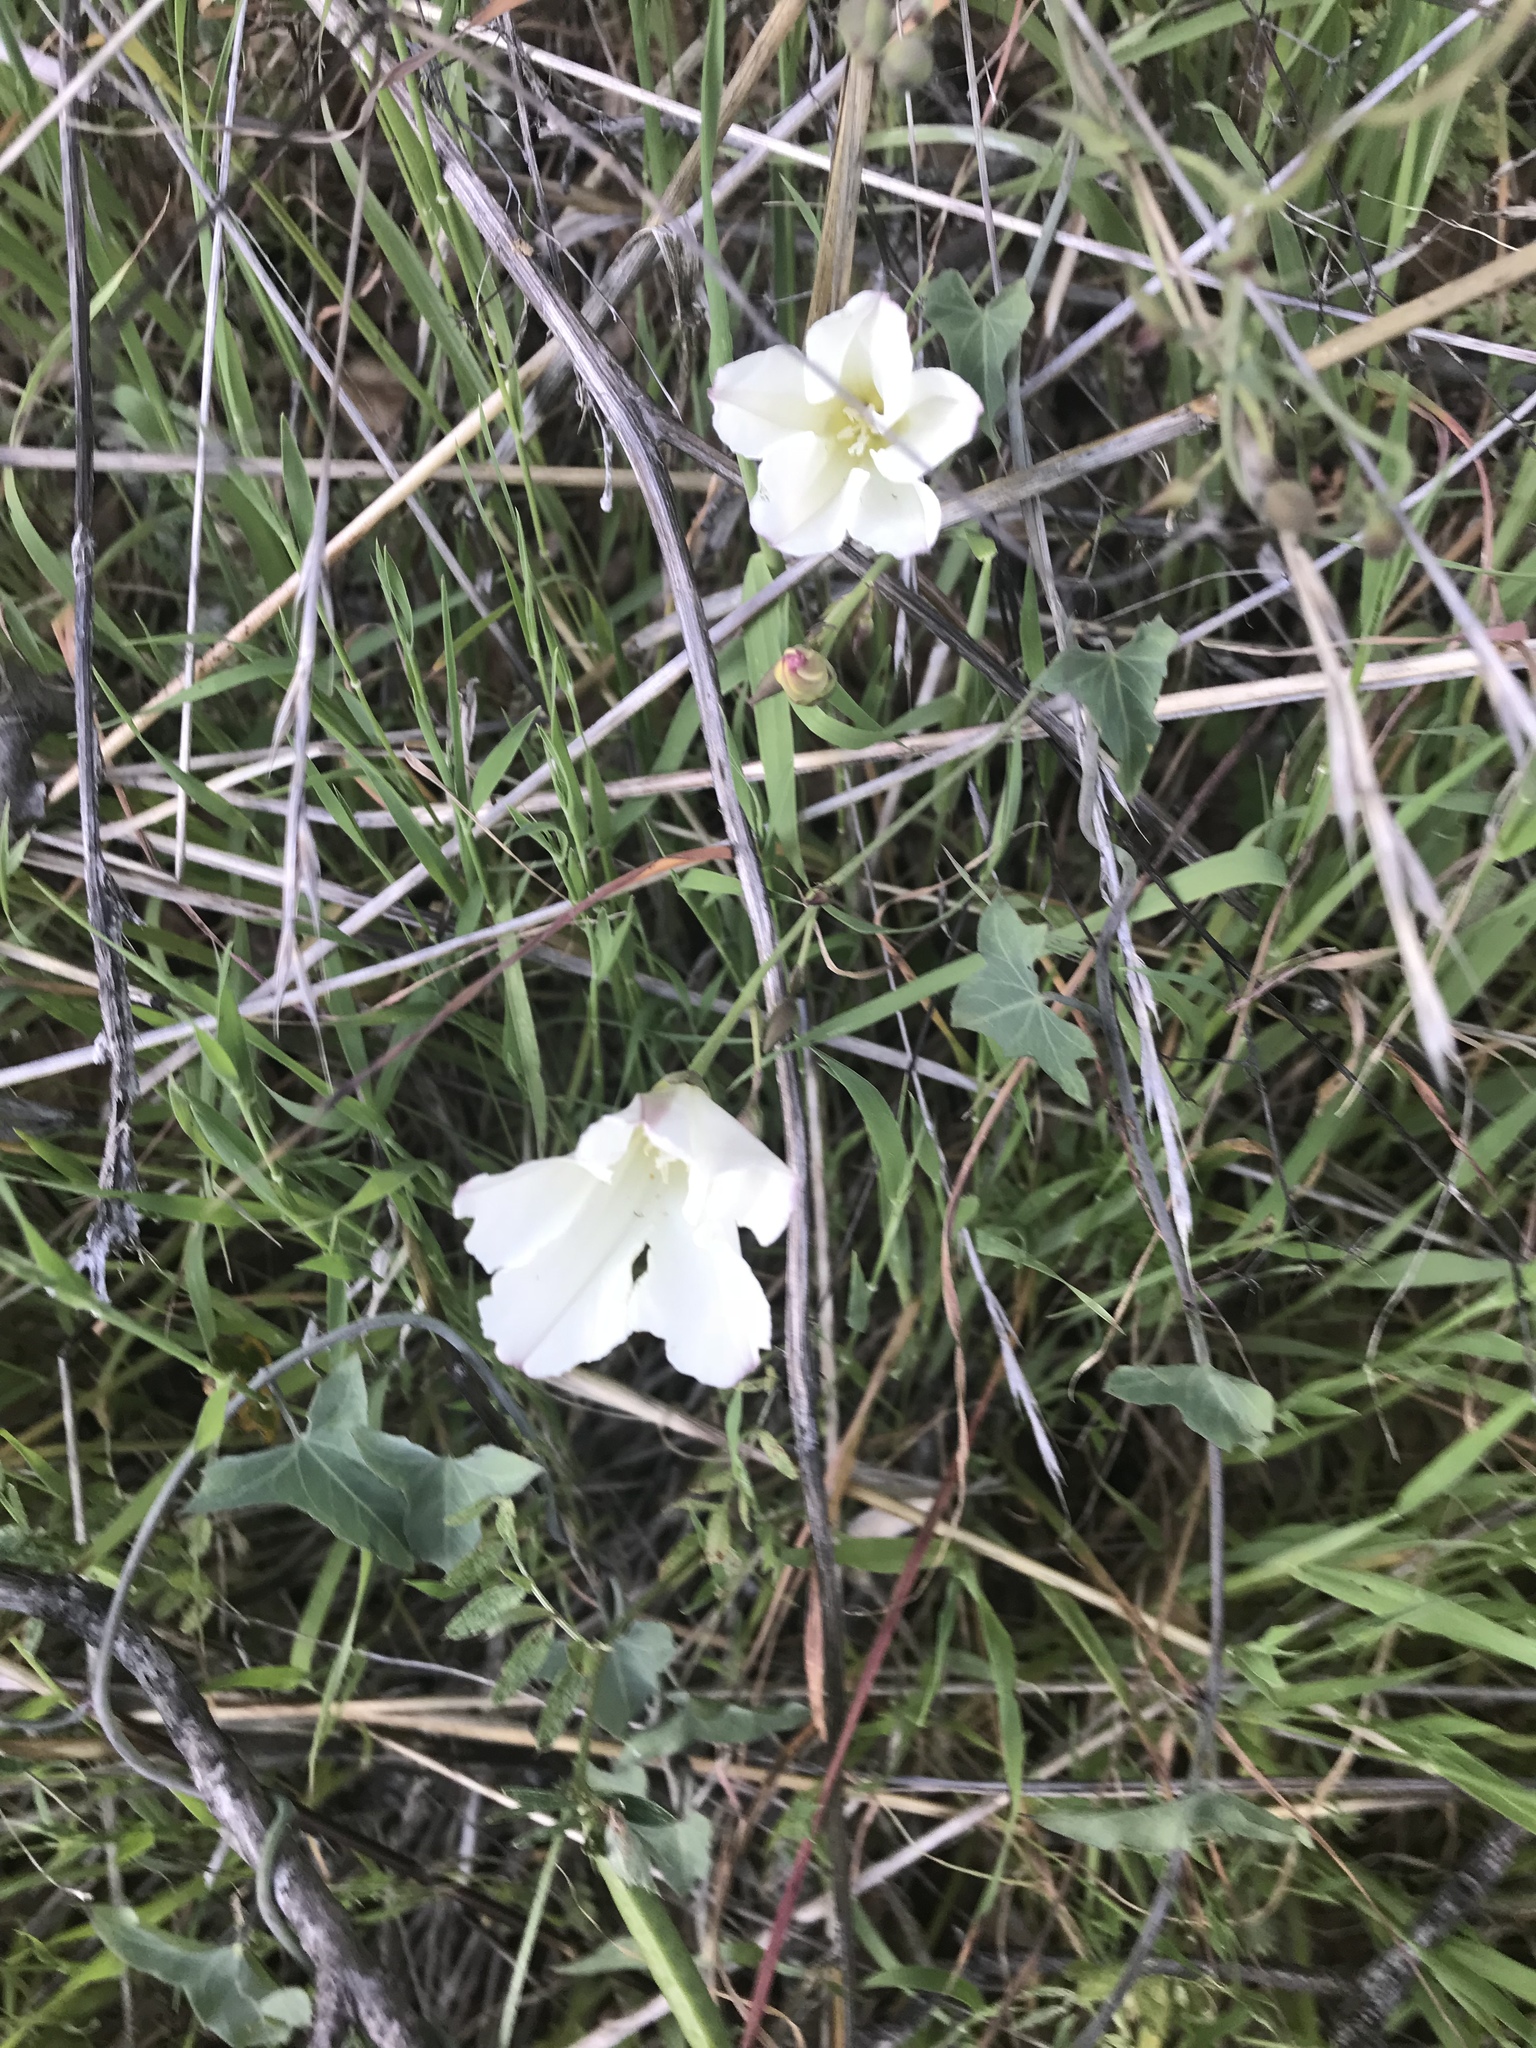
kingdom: Plantae
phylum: Tracheophyta
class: Magnoliopsida
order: Solanales
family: Convolvulaceae
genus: Convolvulus
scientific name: Convolvulus arvensis
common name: Field bindweed
